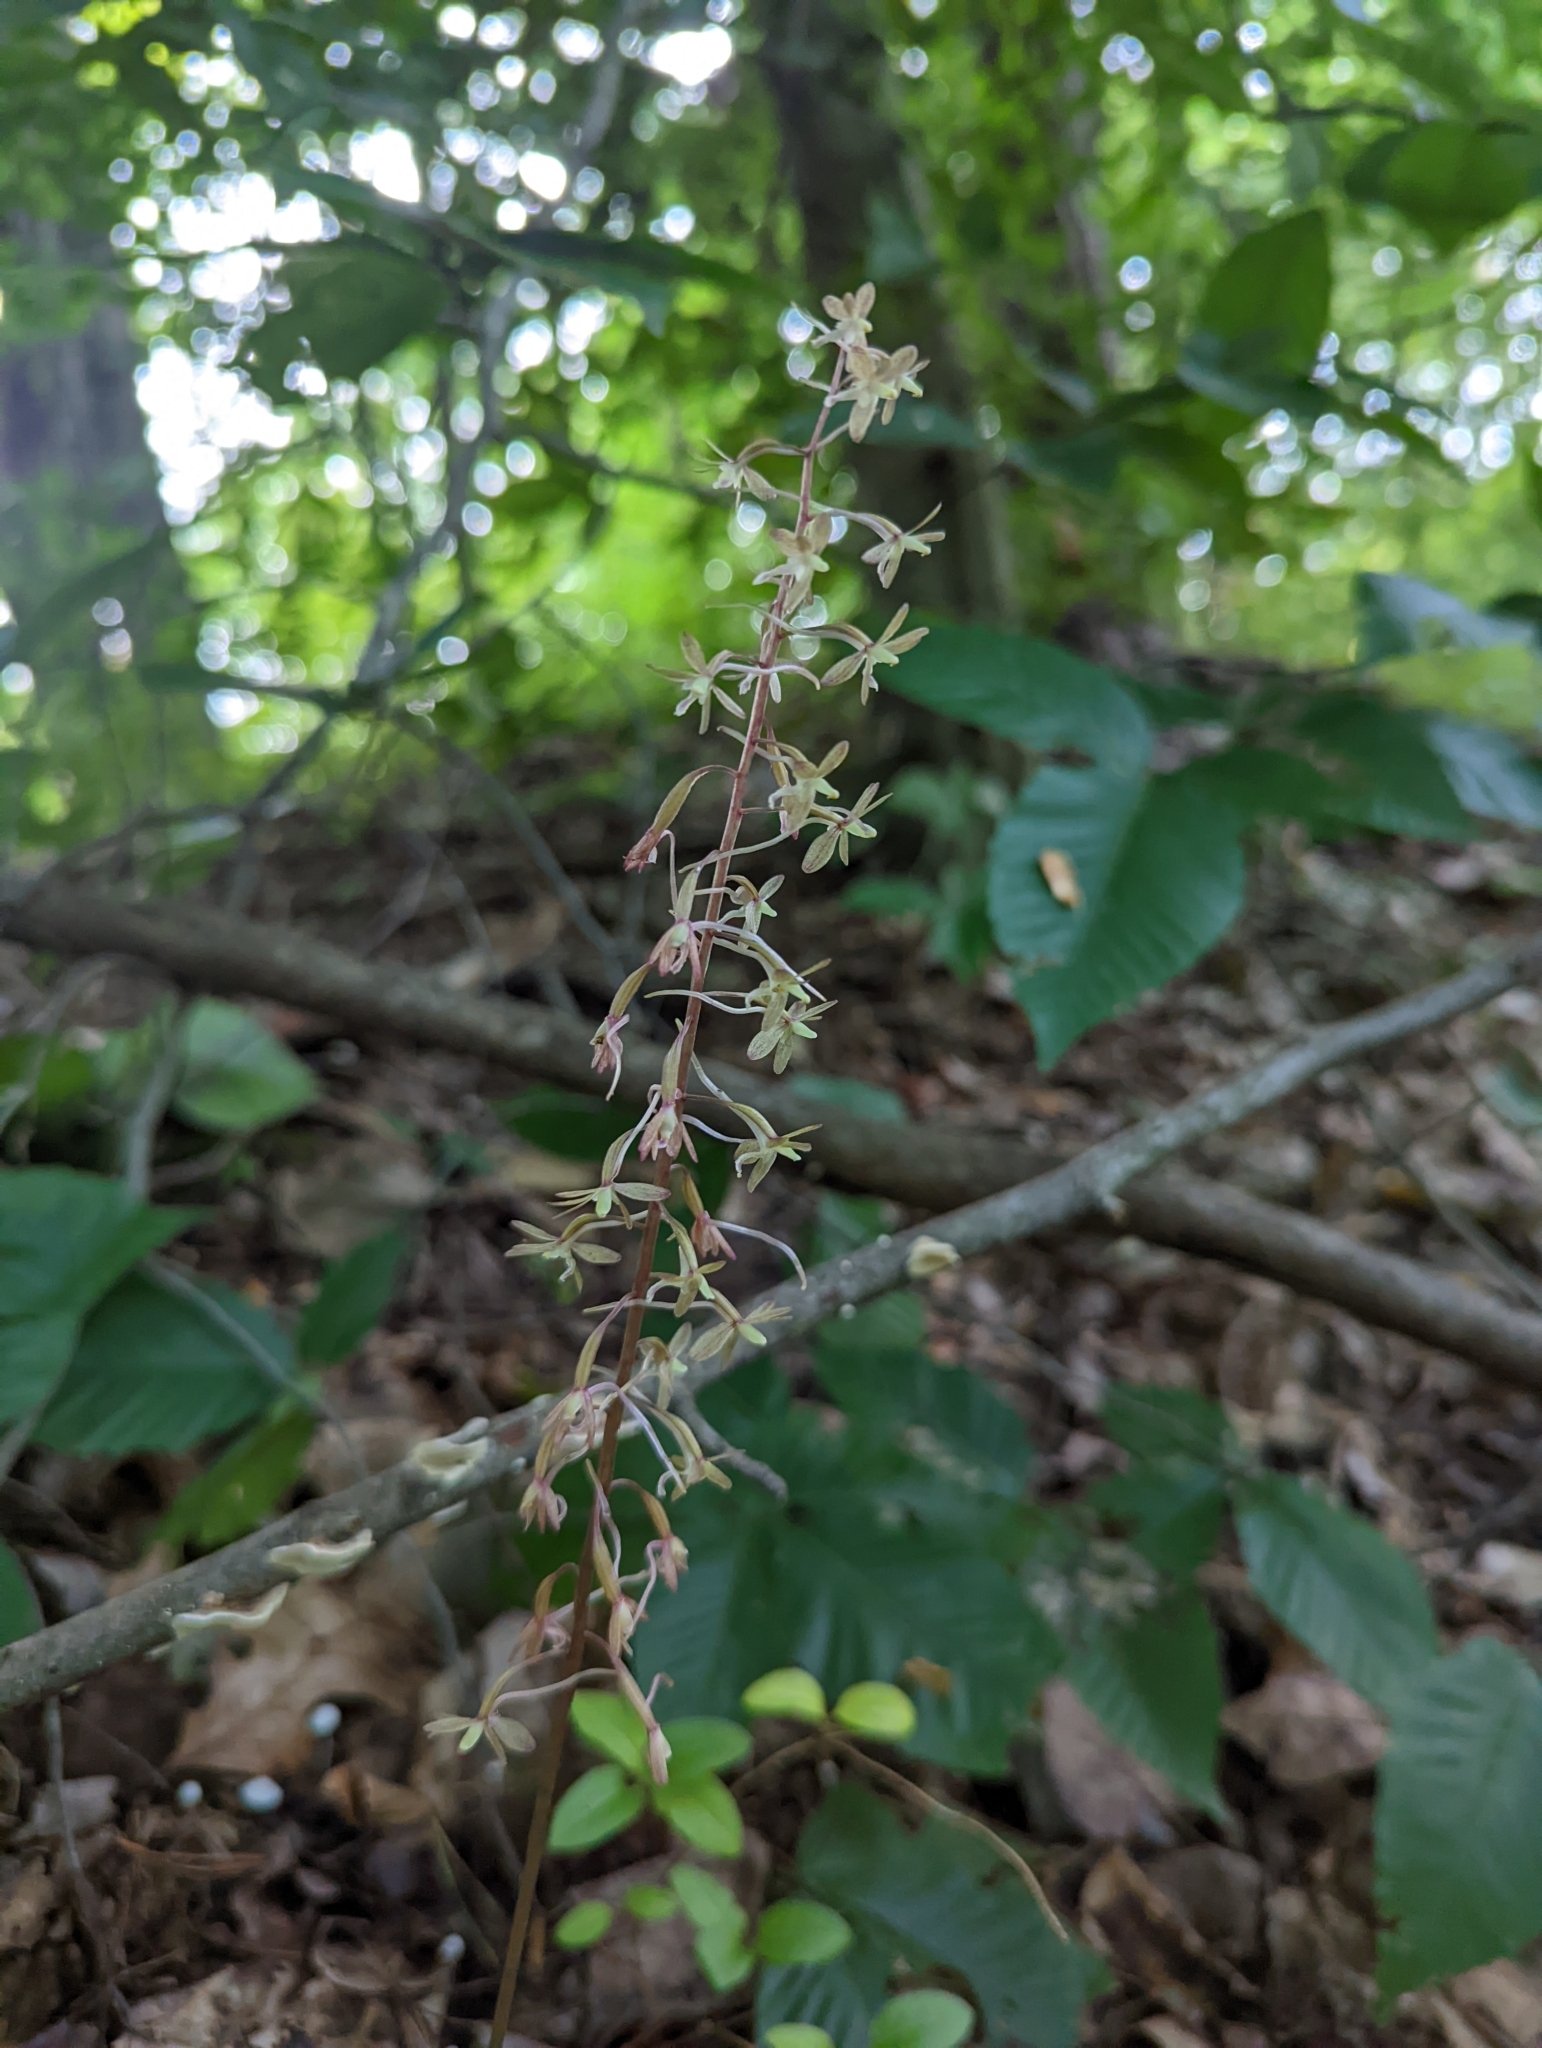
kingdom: Plantae
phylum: Tracheophyta
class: Liliopsida
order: Asparagales
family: Orchidaceae
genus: Tipularia
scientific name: Tipularia discolor
